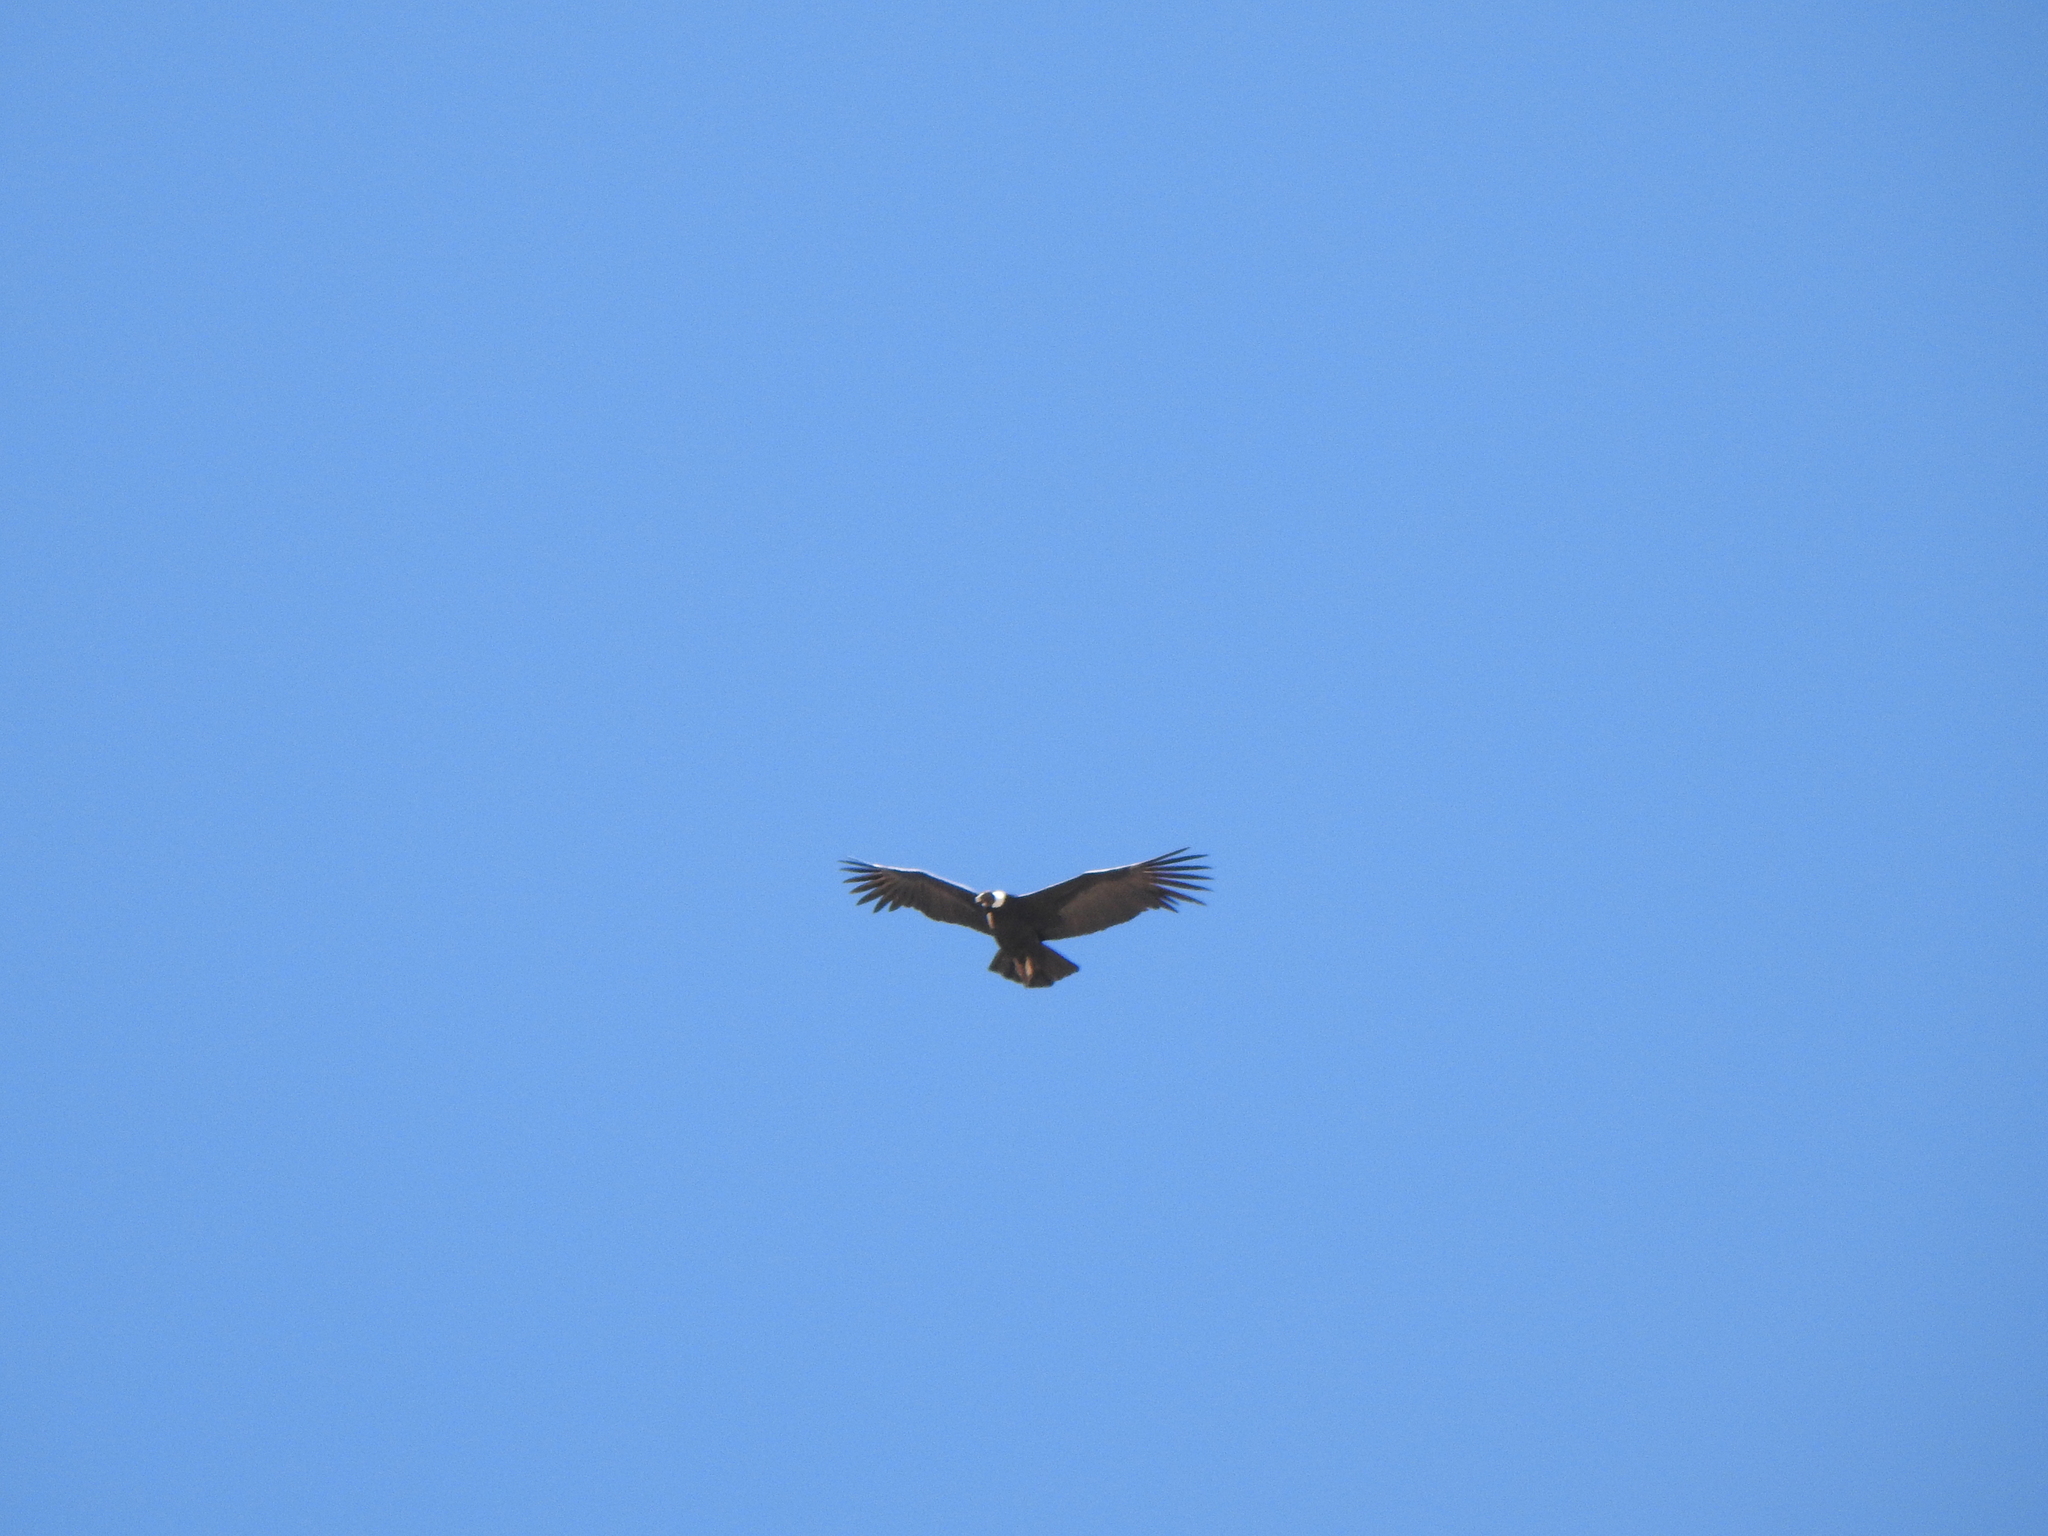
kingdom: Animalia
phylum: Chordata
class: Aves
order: Accipitriformes
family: Cathartidae
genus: Vultur
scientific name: Vultur gryphus
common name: Andean condor
